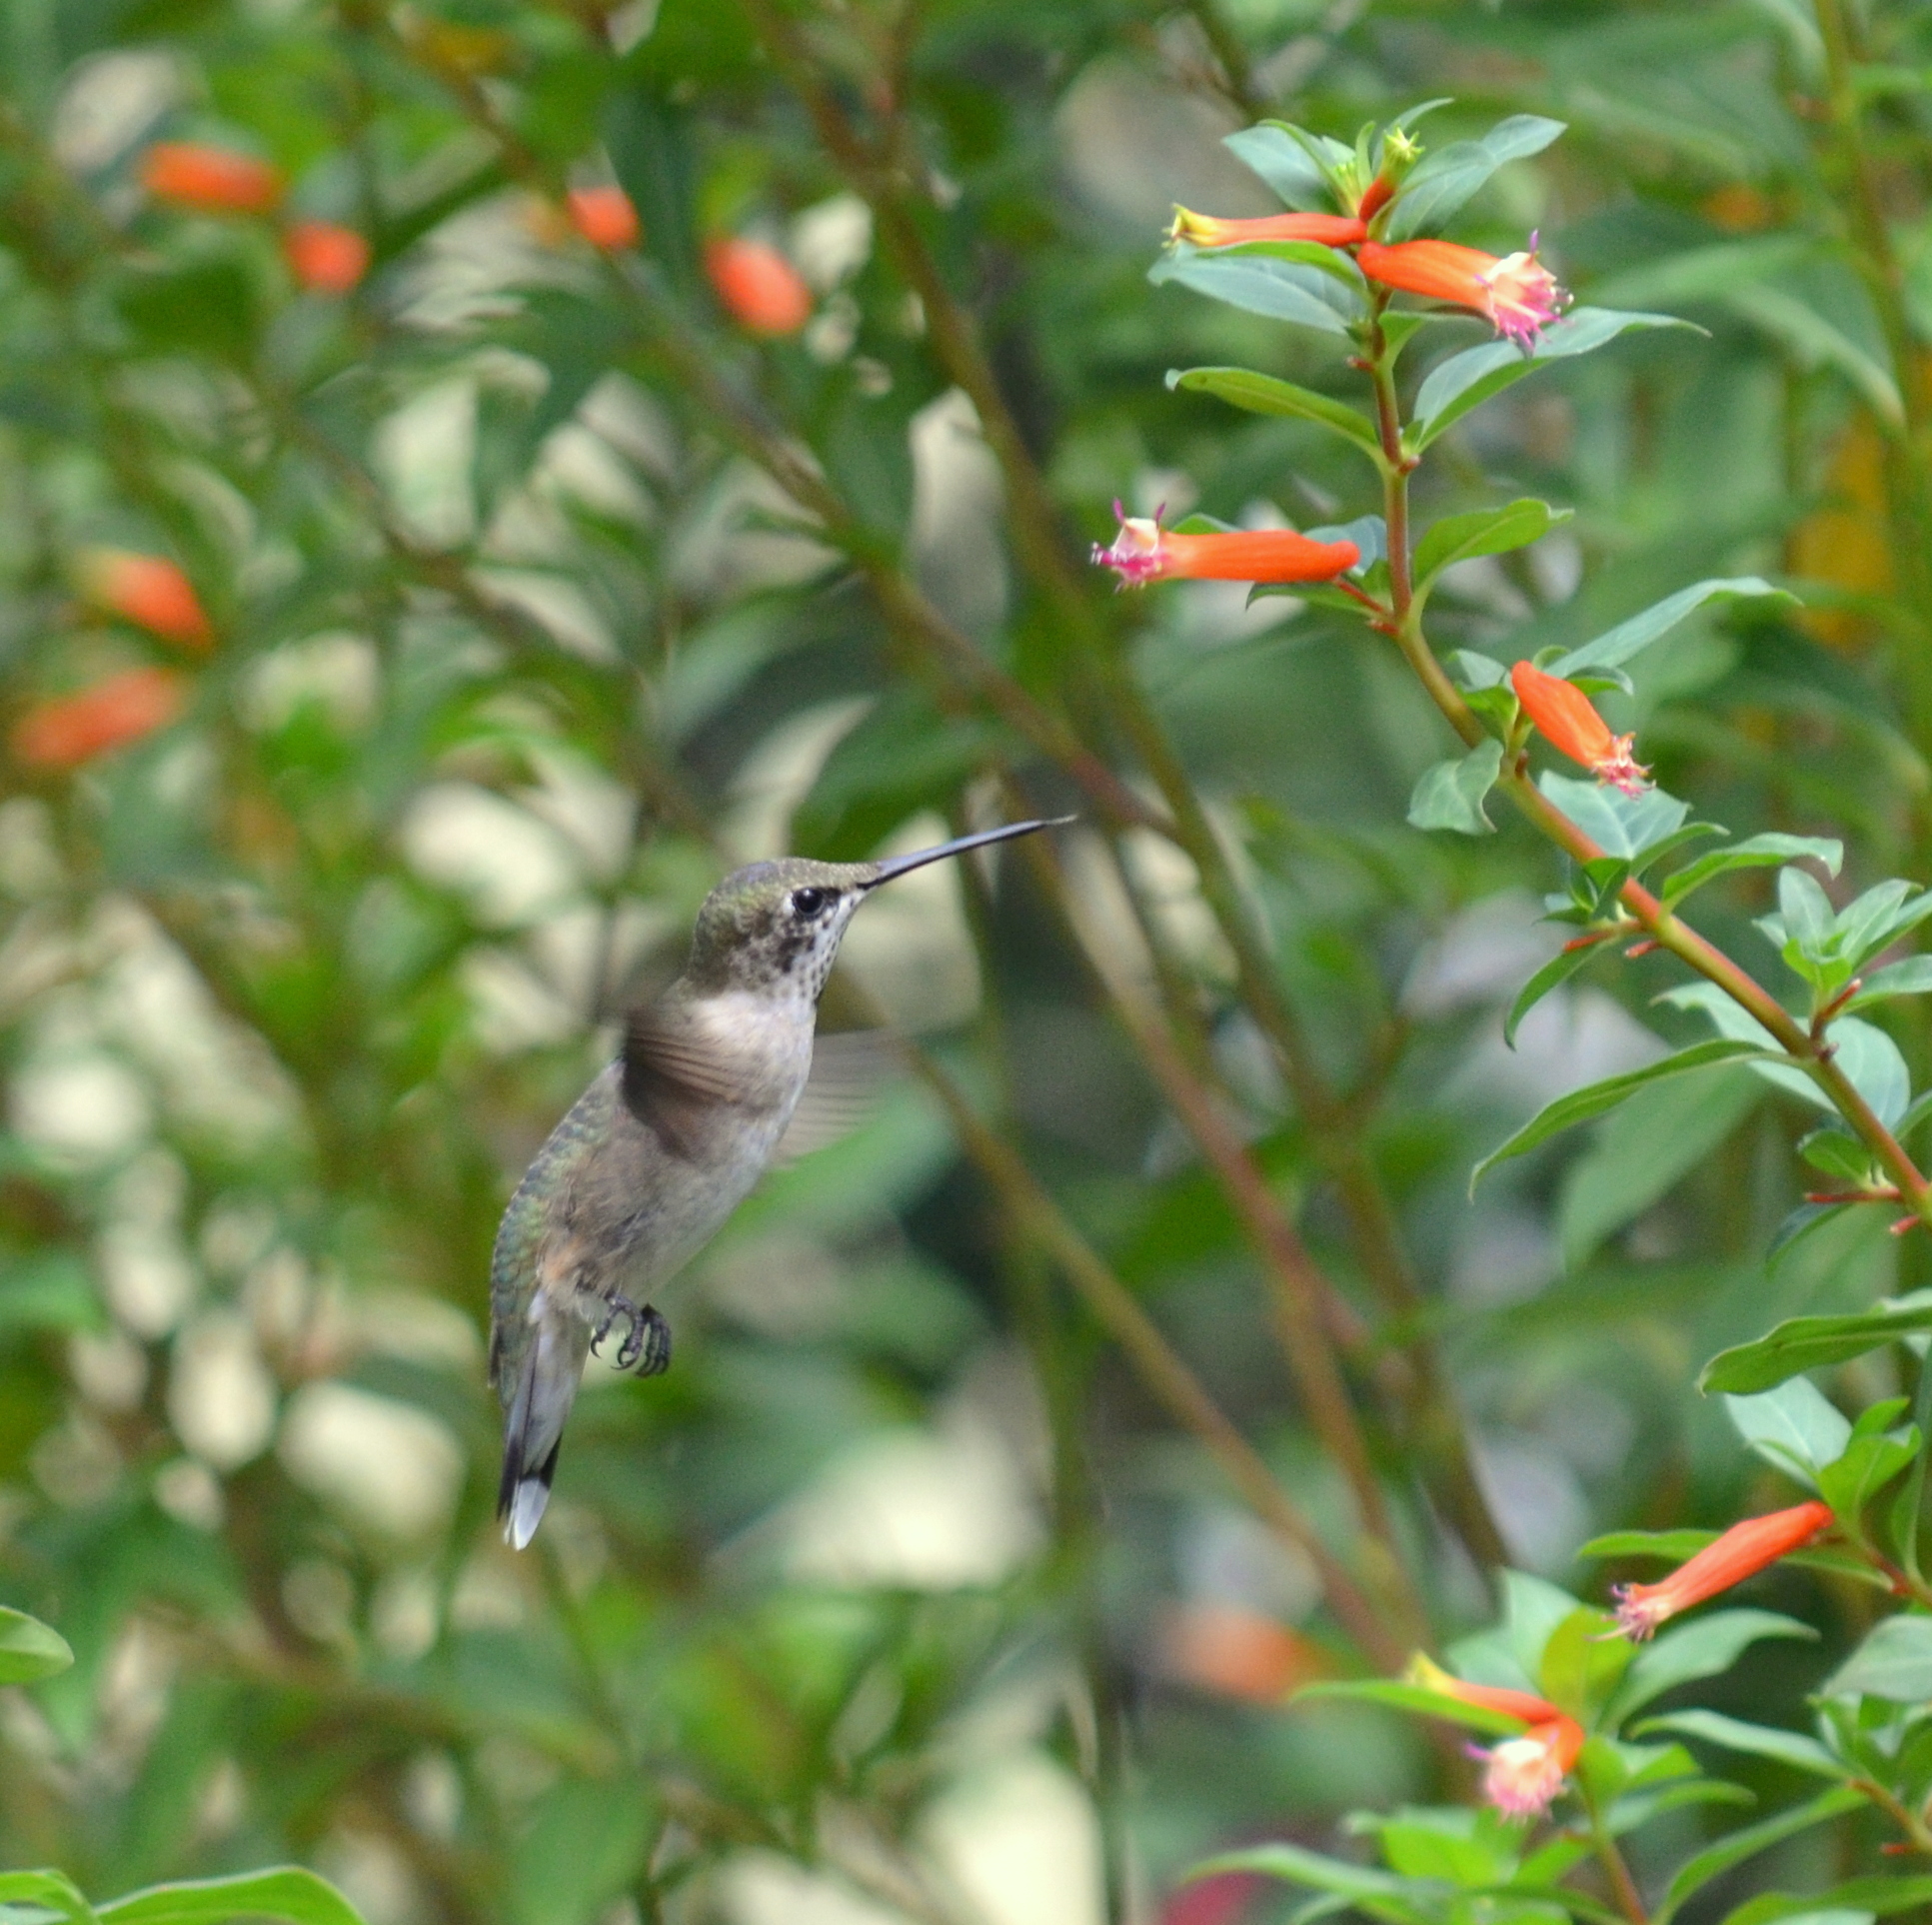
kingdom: Animalia
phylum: Chordata
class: Aves
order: Apodiformes
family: Trochilidae
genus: Archilochus
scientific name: Archilochus colubris
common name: Ruby-throated hummingbird
